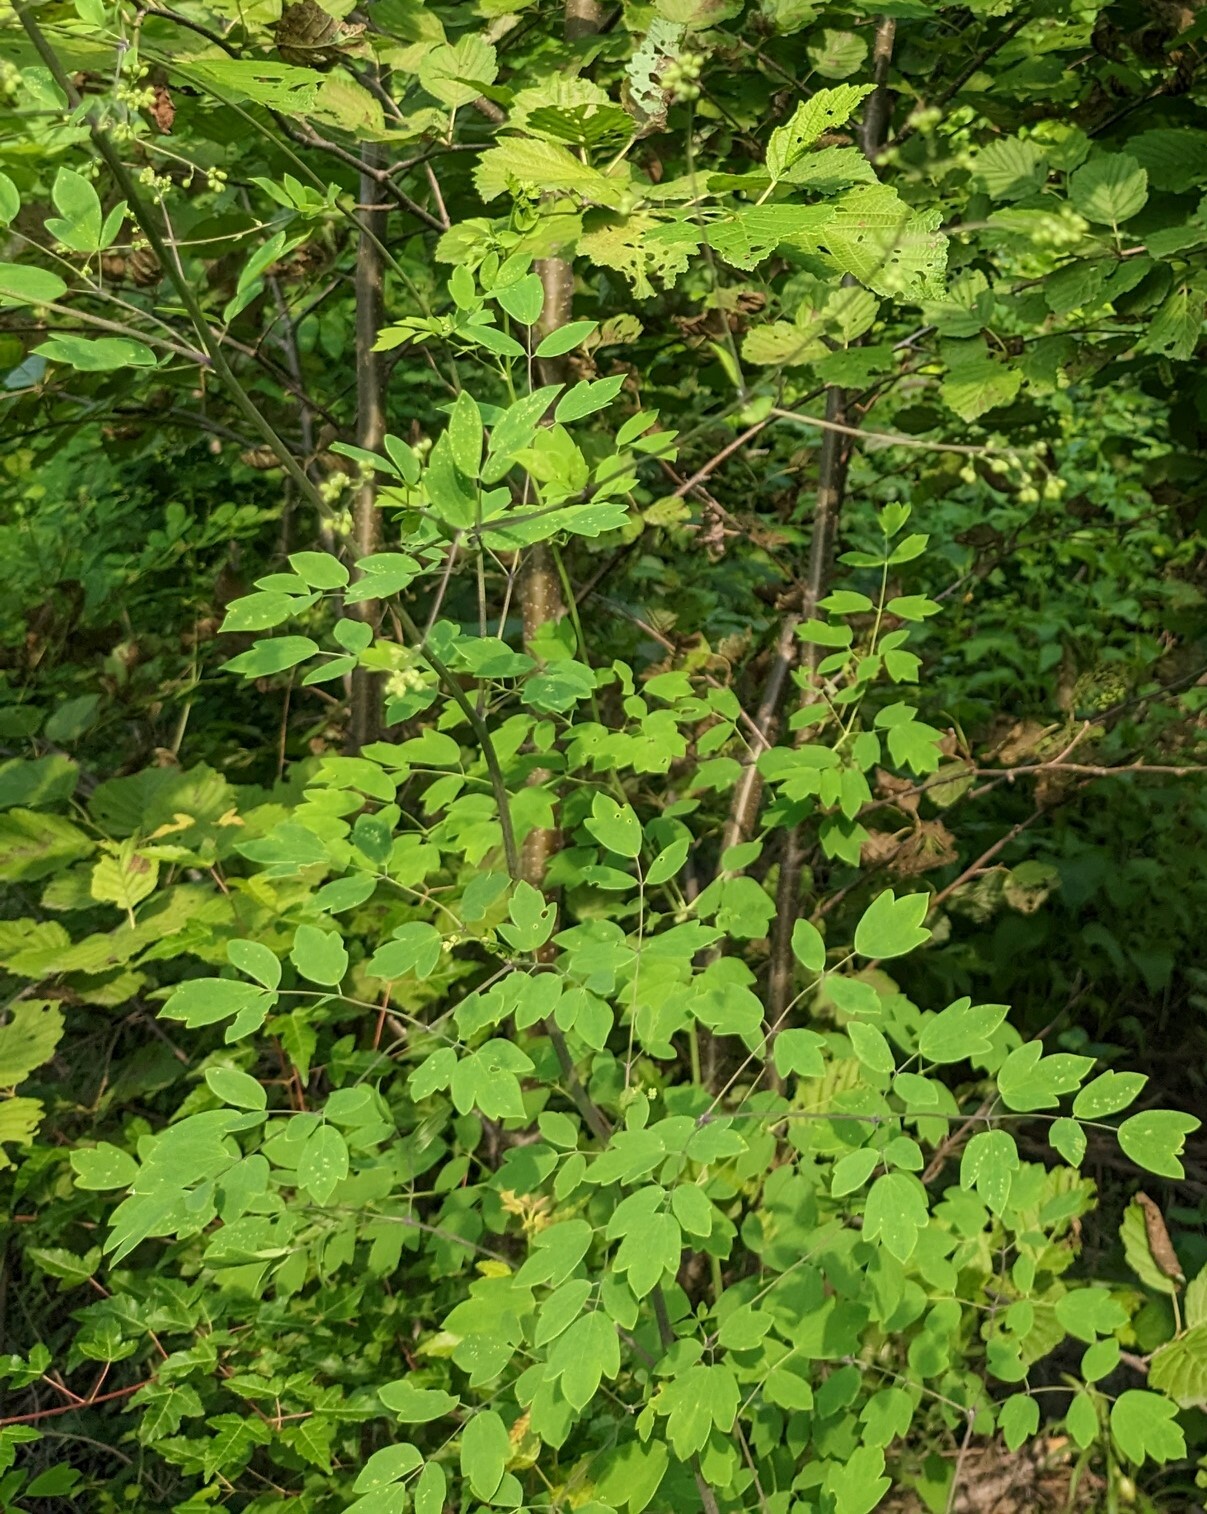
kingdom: Plantae
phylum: Tracheophyta
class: Magnoliopsida
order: Ranunculales
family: Ranunculaceae
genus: Thalictrum
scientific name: Thalictrum minus
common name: Lesser meadow-rue
